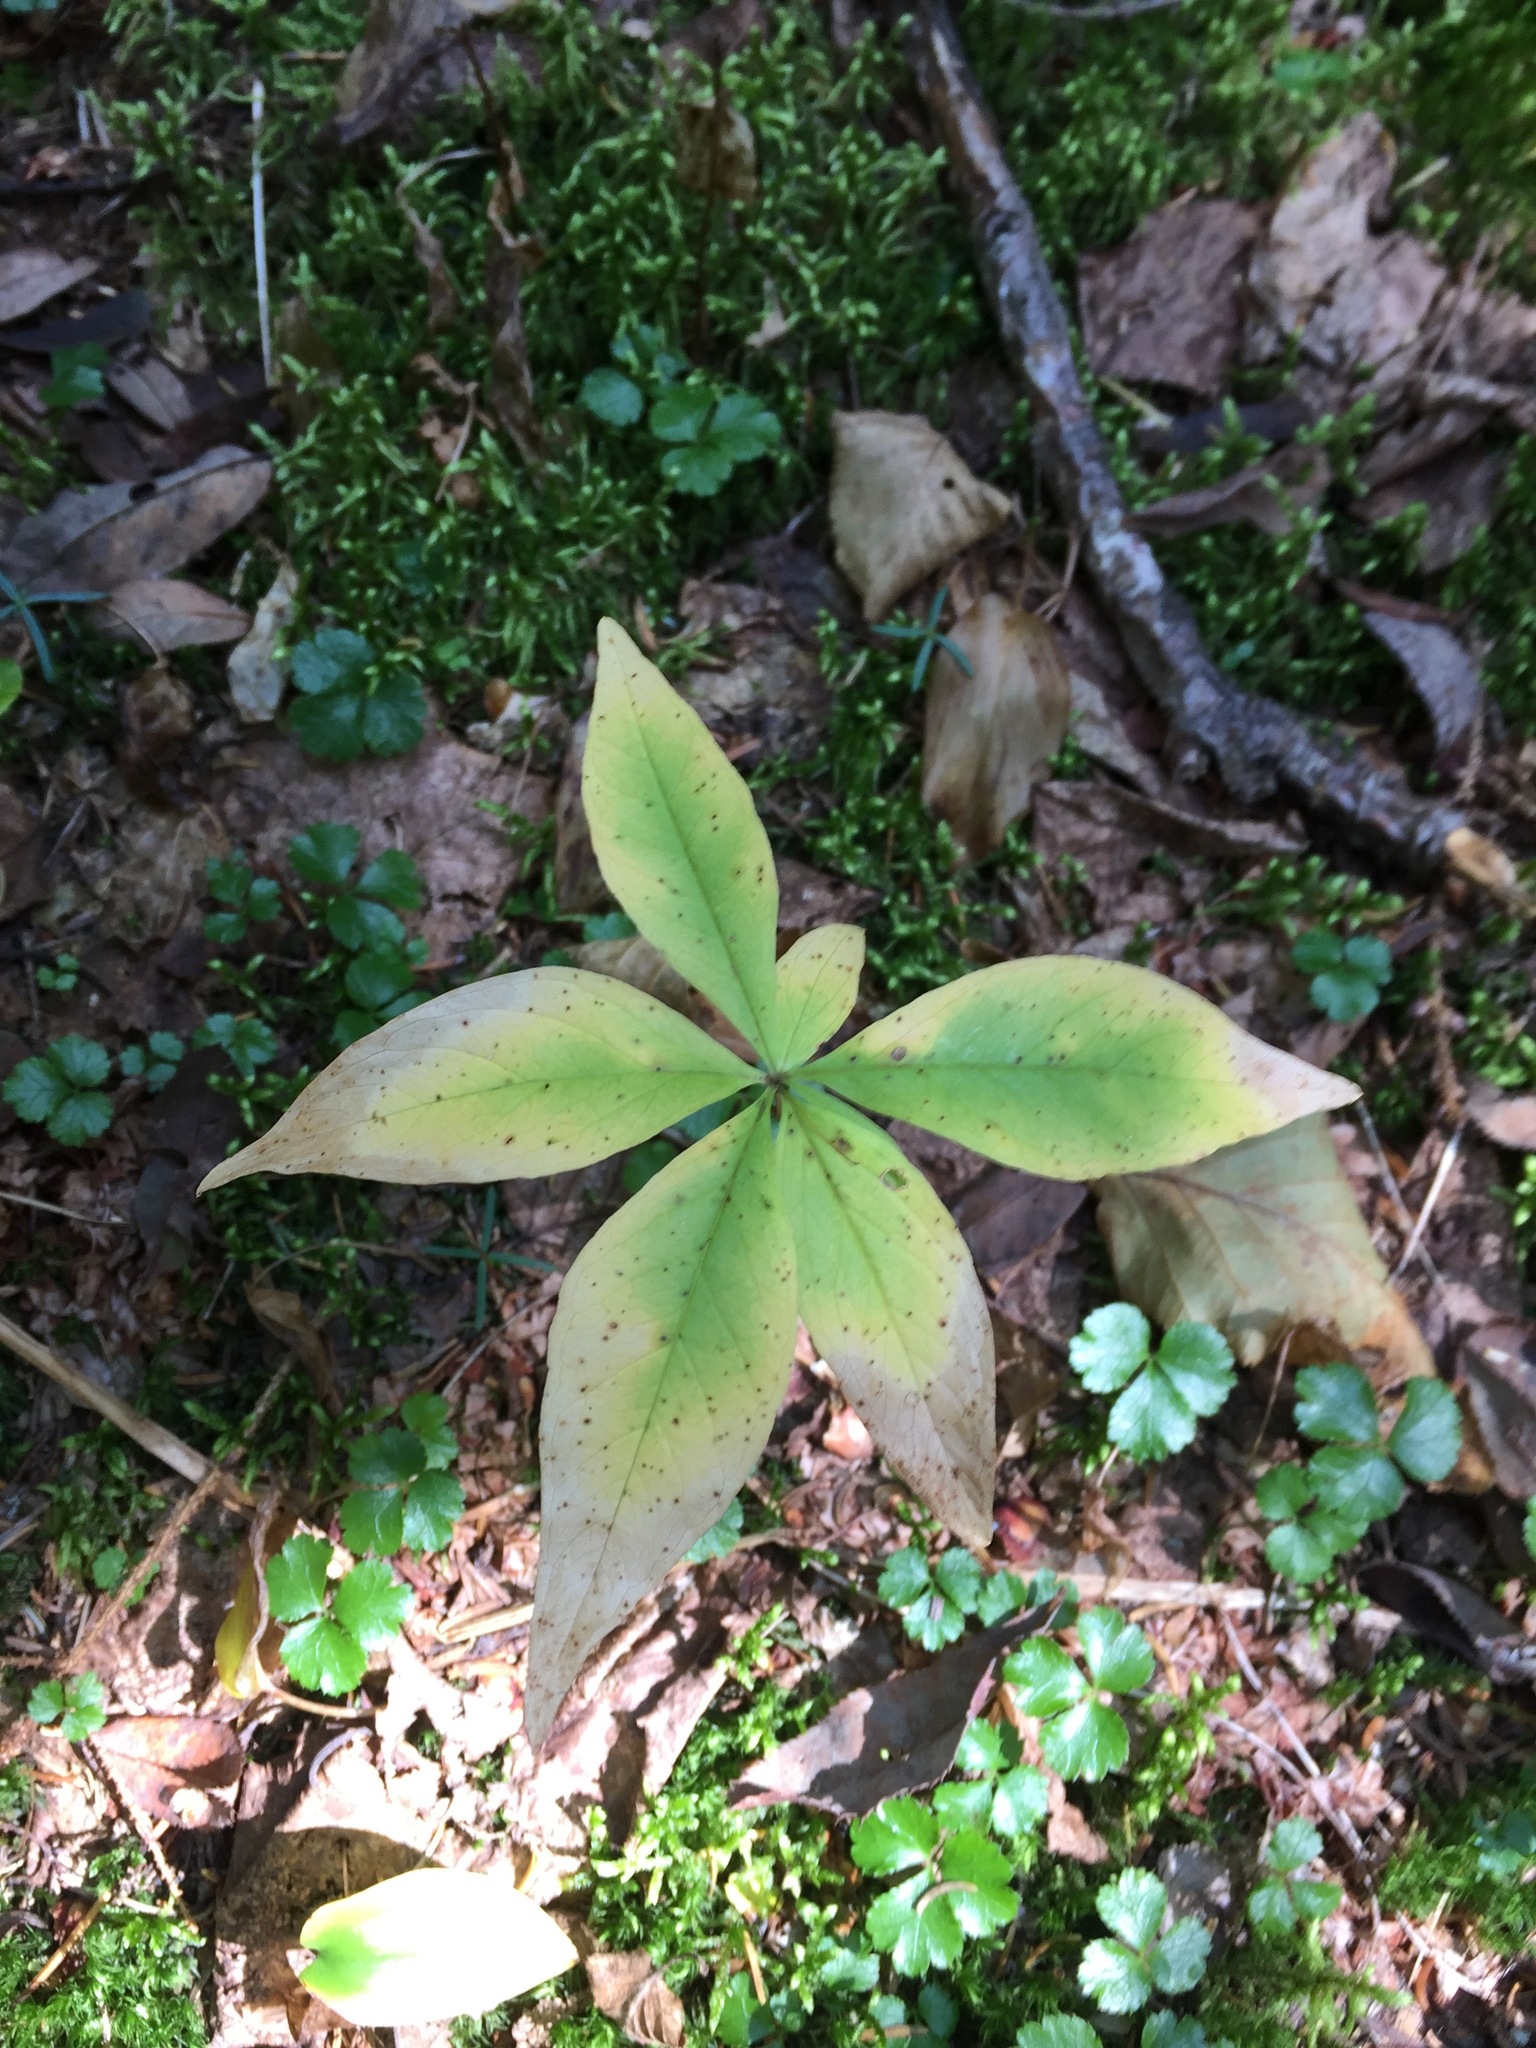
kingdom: Plantae
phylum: Tracheophyta
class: Magnoliopsida
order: Ericales
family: Primulaceae
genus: Lysimachia
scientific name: Lysimachia borealis
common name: American starflower
